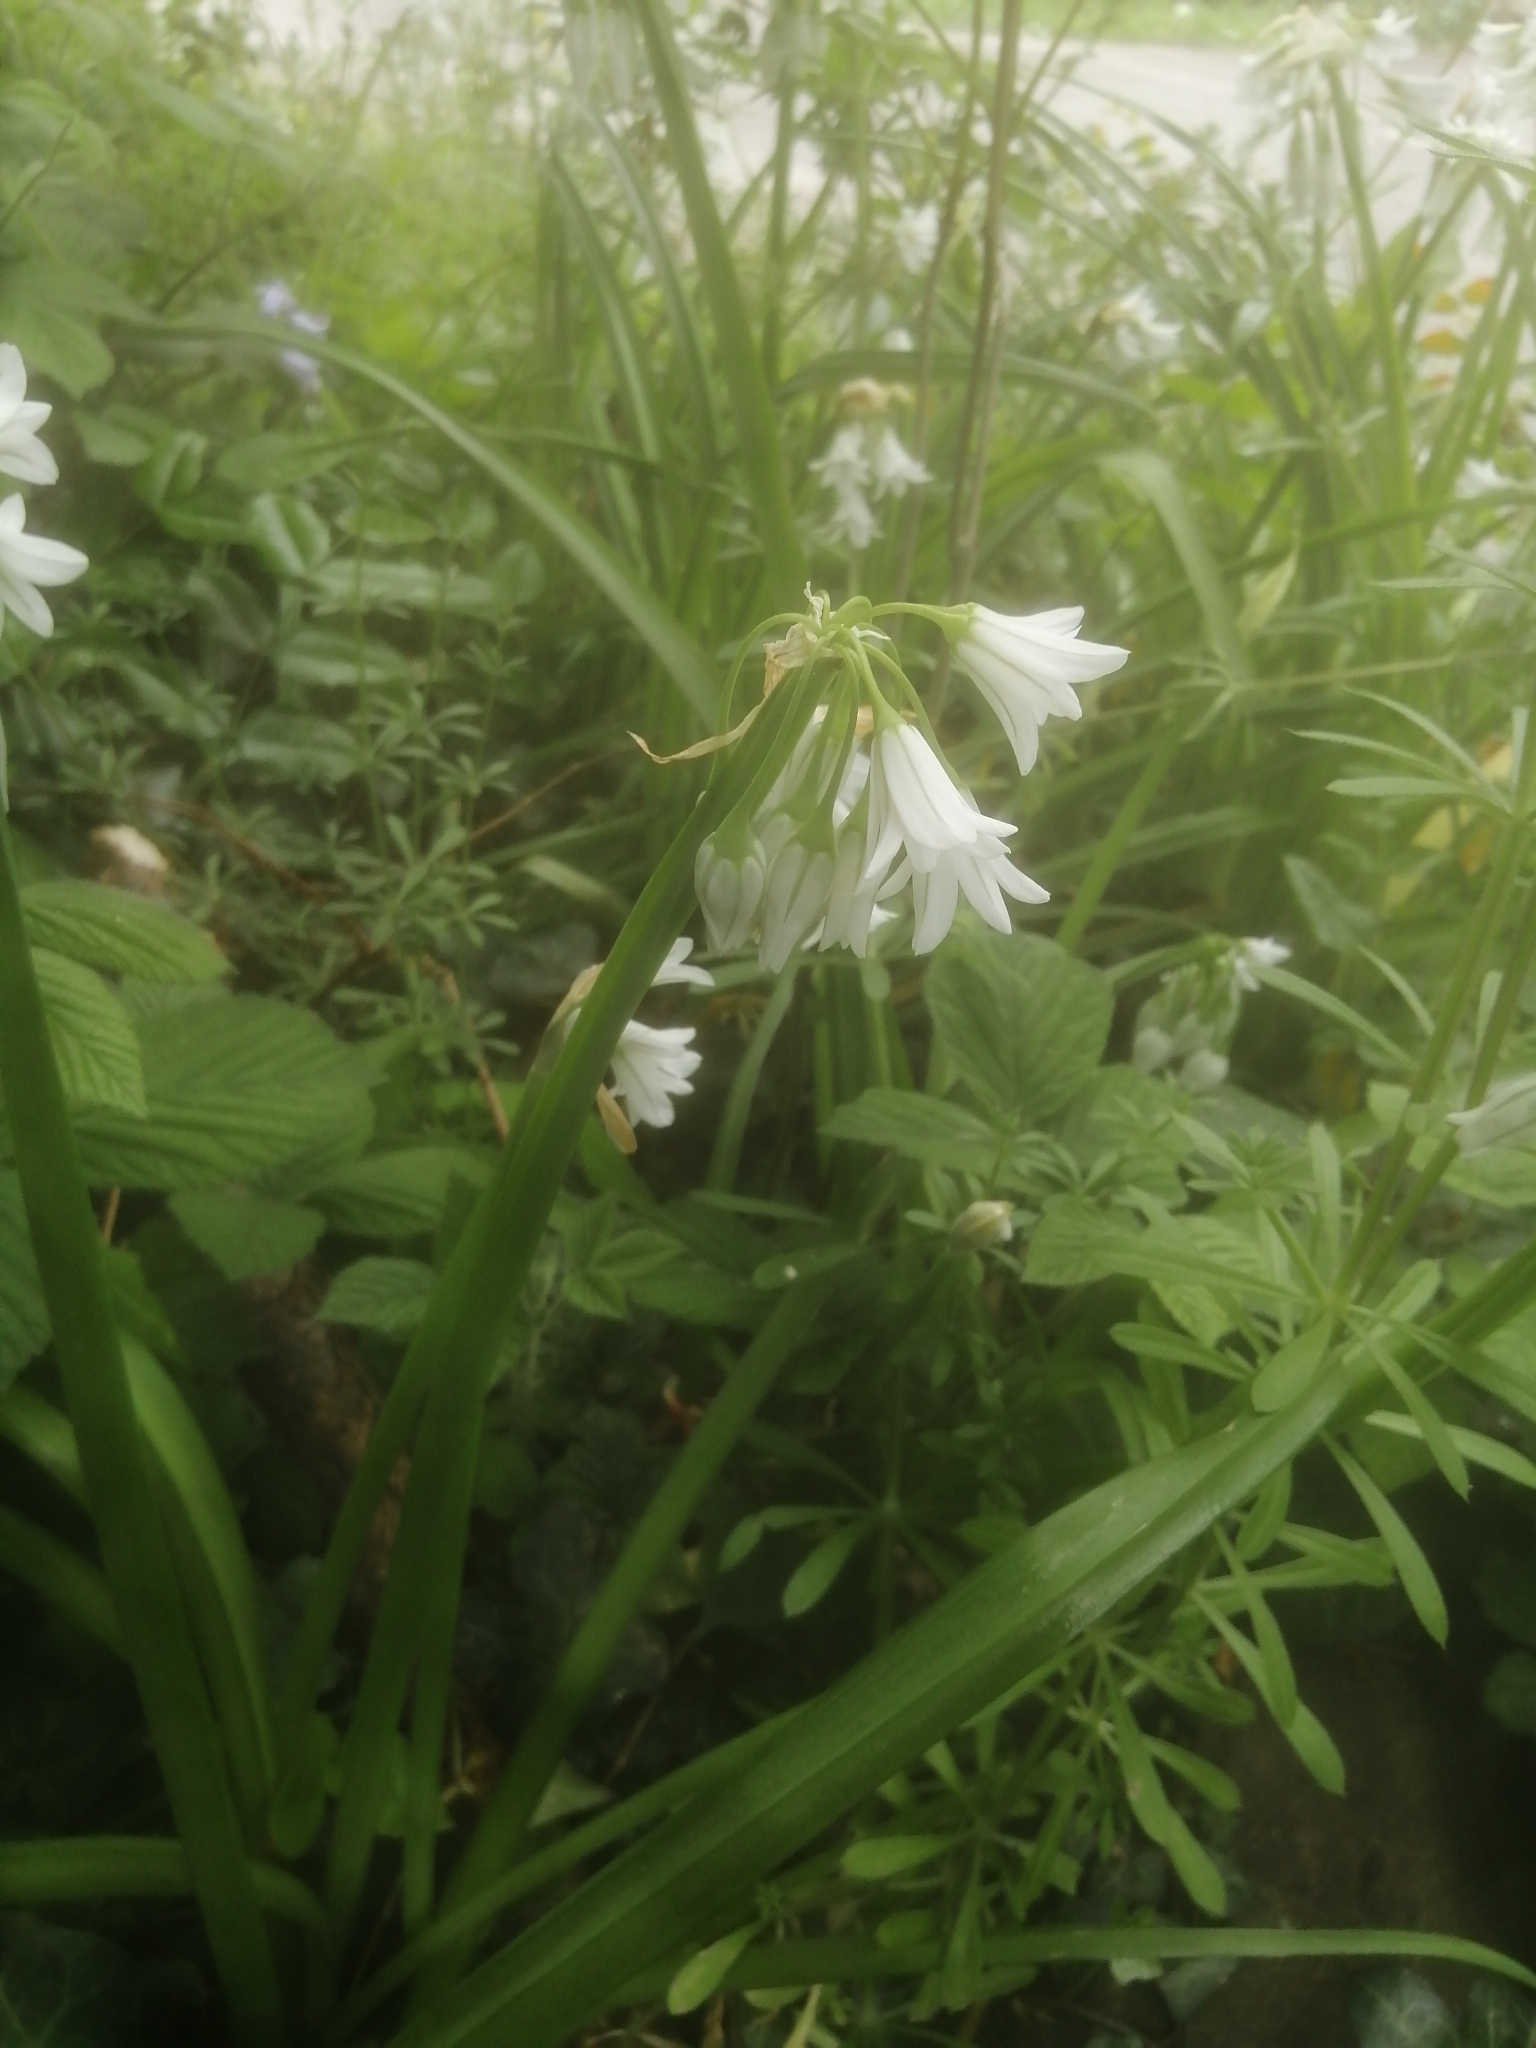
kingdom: Plantae
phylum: Tracheophyta
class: Liliopsida
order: Asparagales
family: Amaryllidaceae
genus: Allium
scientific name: Allium triquetrum
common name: Three-cornered garlic
